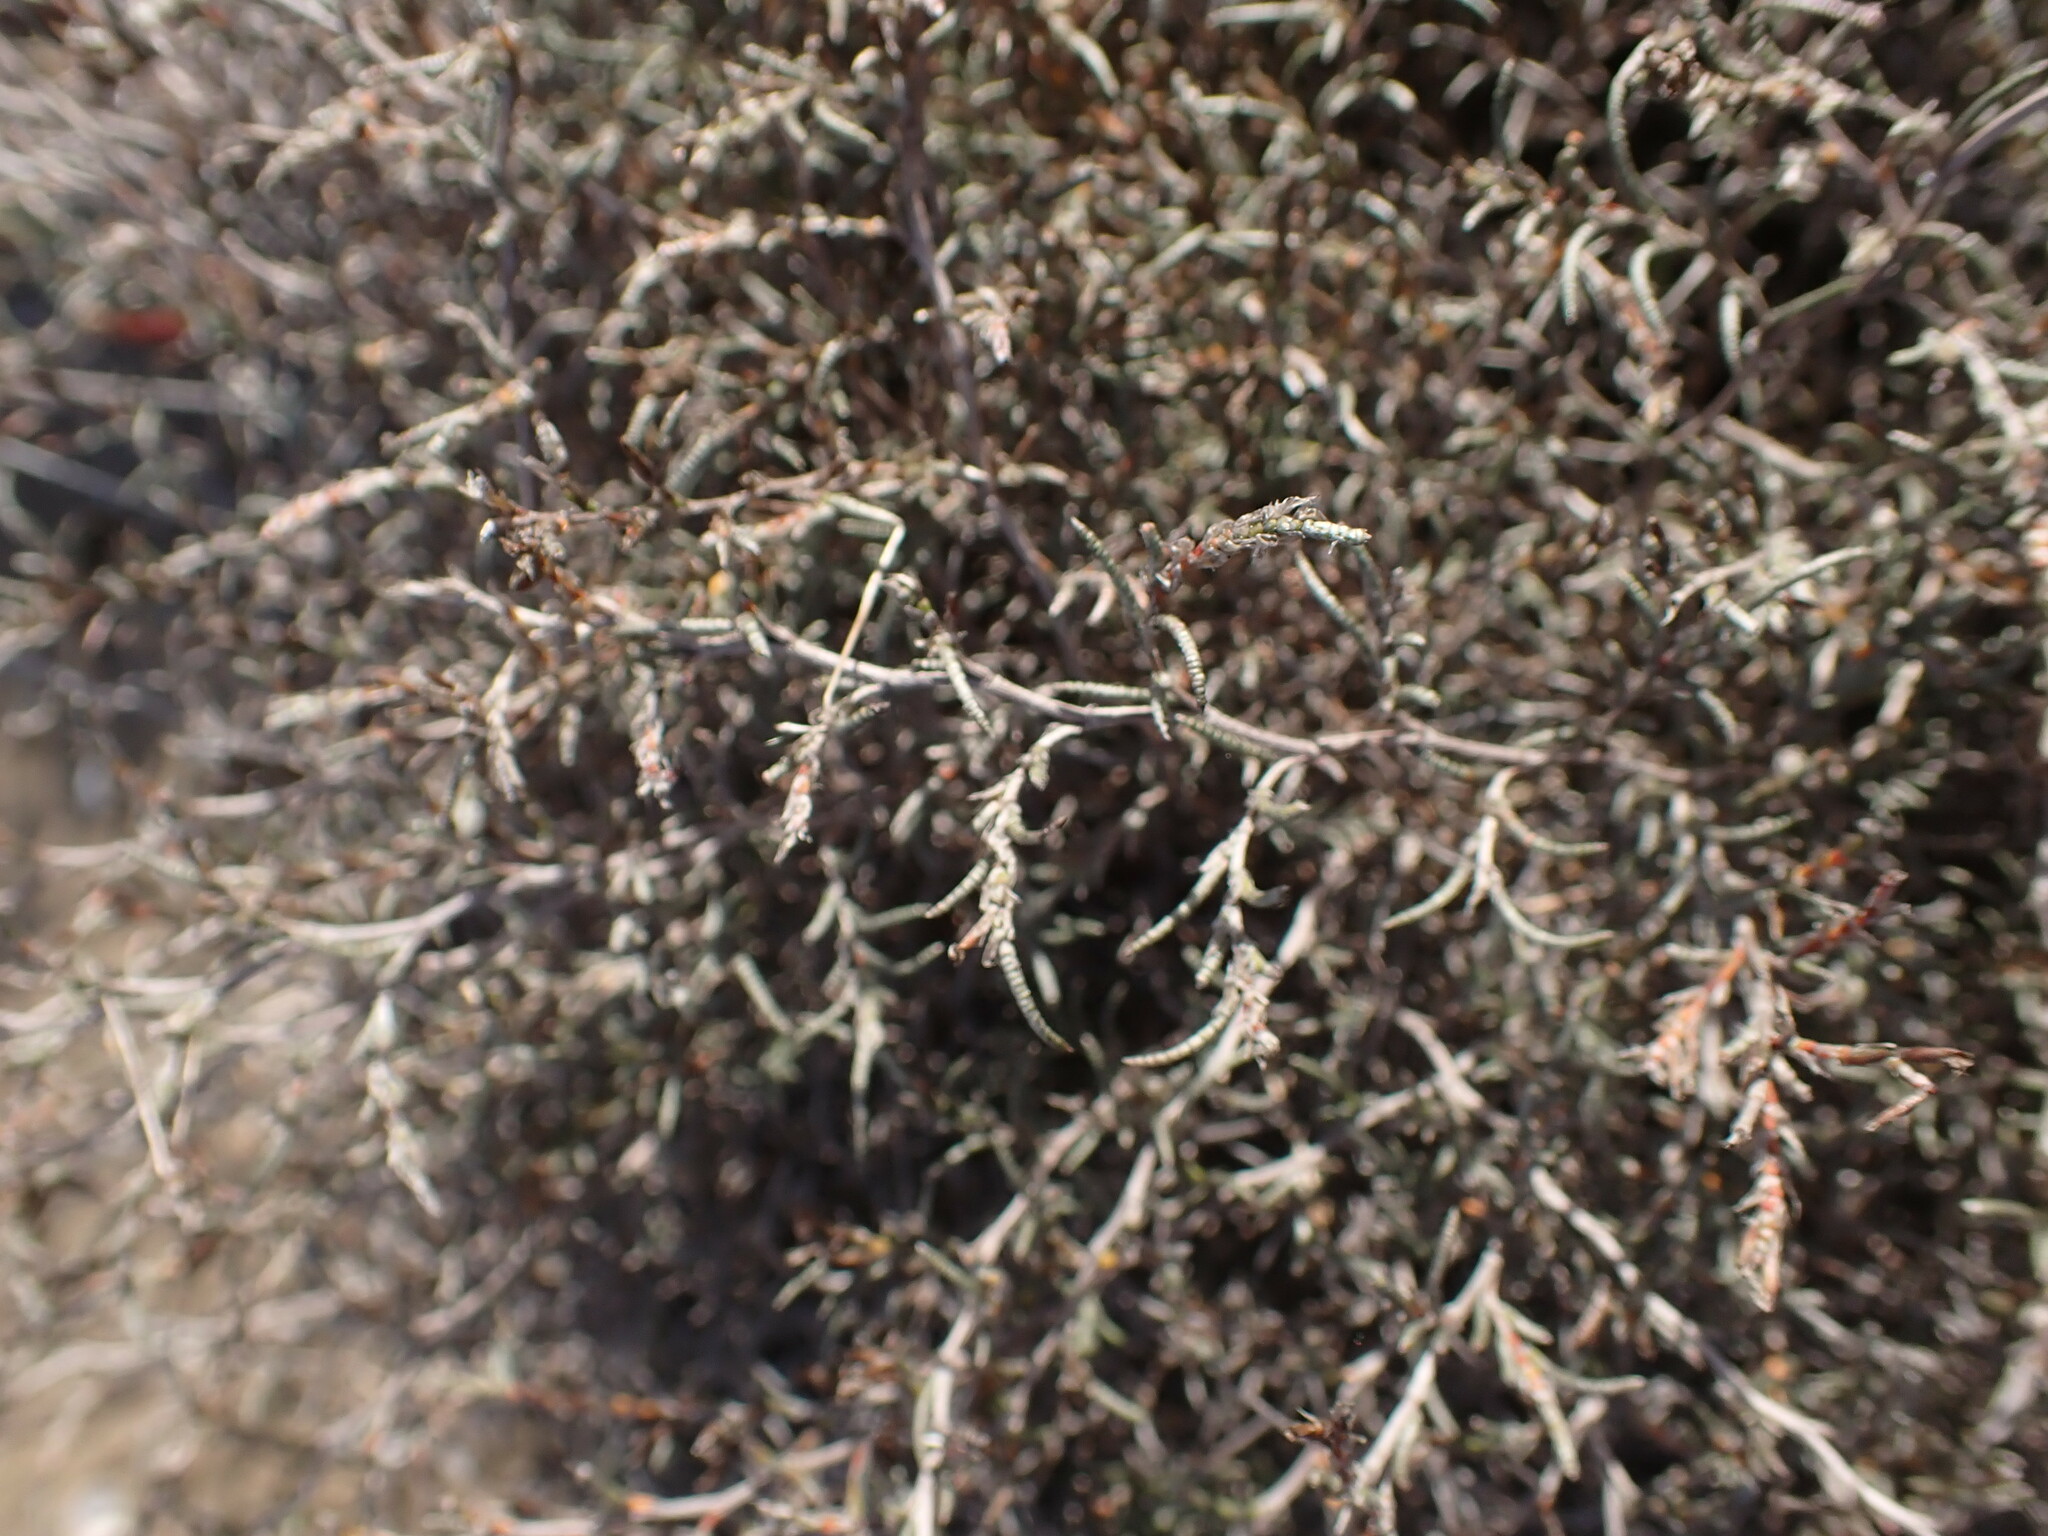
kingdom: Plantae
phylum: Tracheophyta
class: Magnoliopsida
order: Caryophyllales
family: Plumbaginaceae
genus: Myriolimon
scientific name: Myriolimon diffusum
